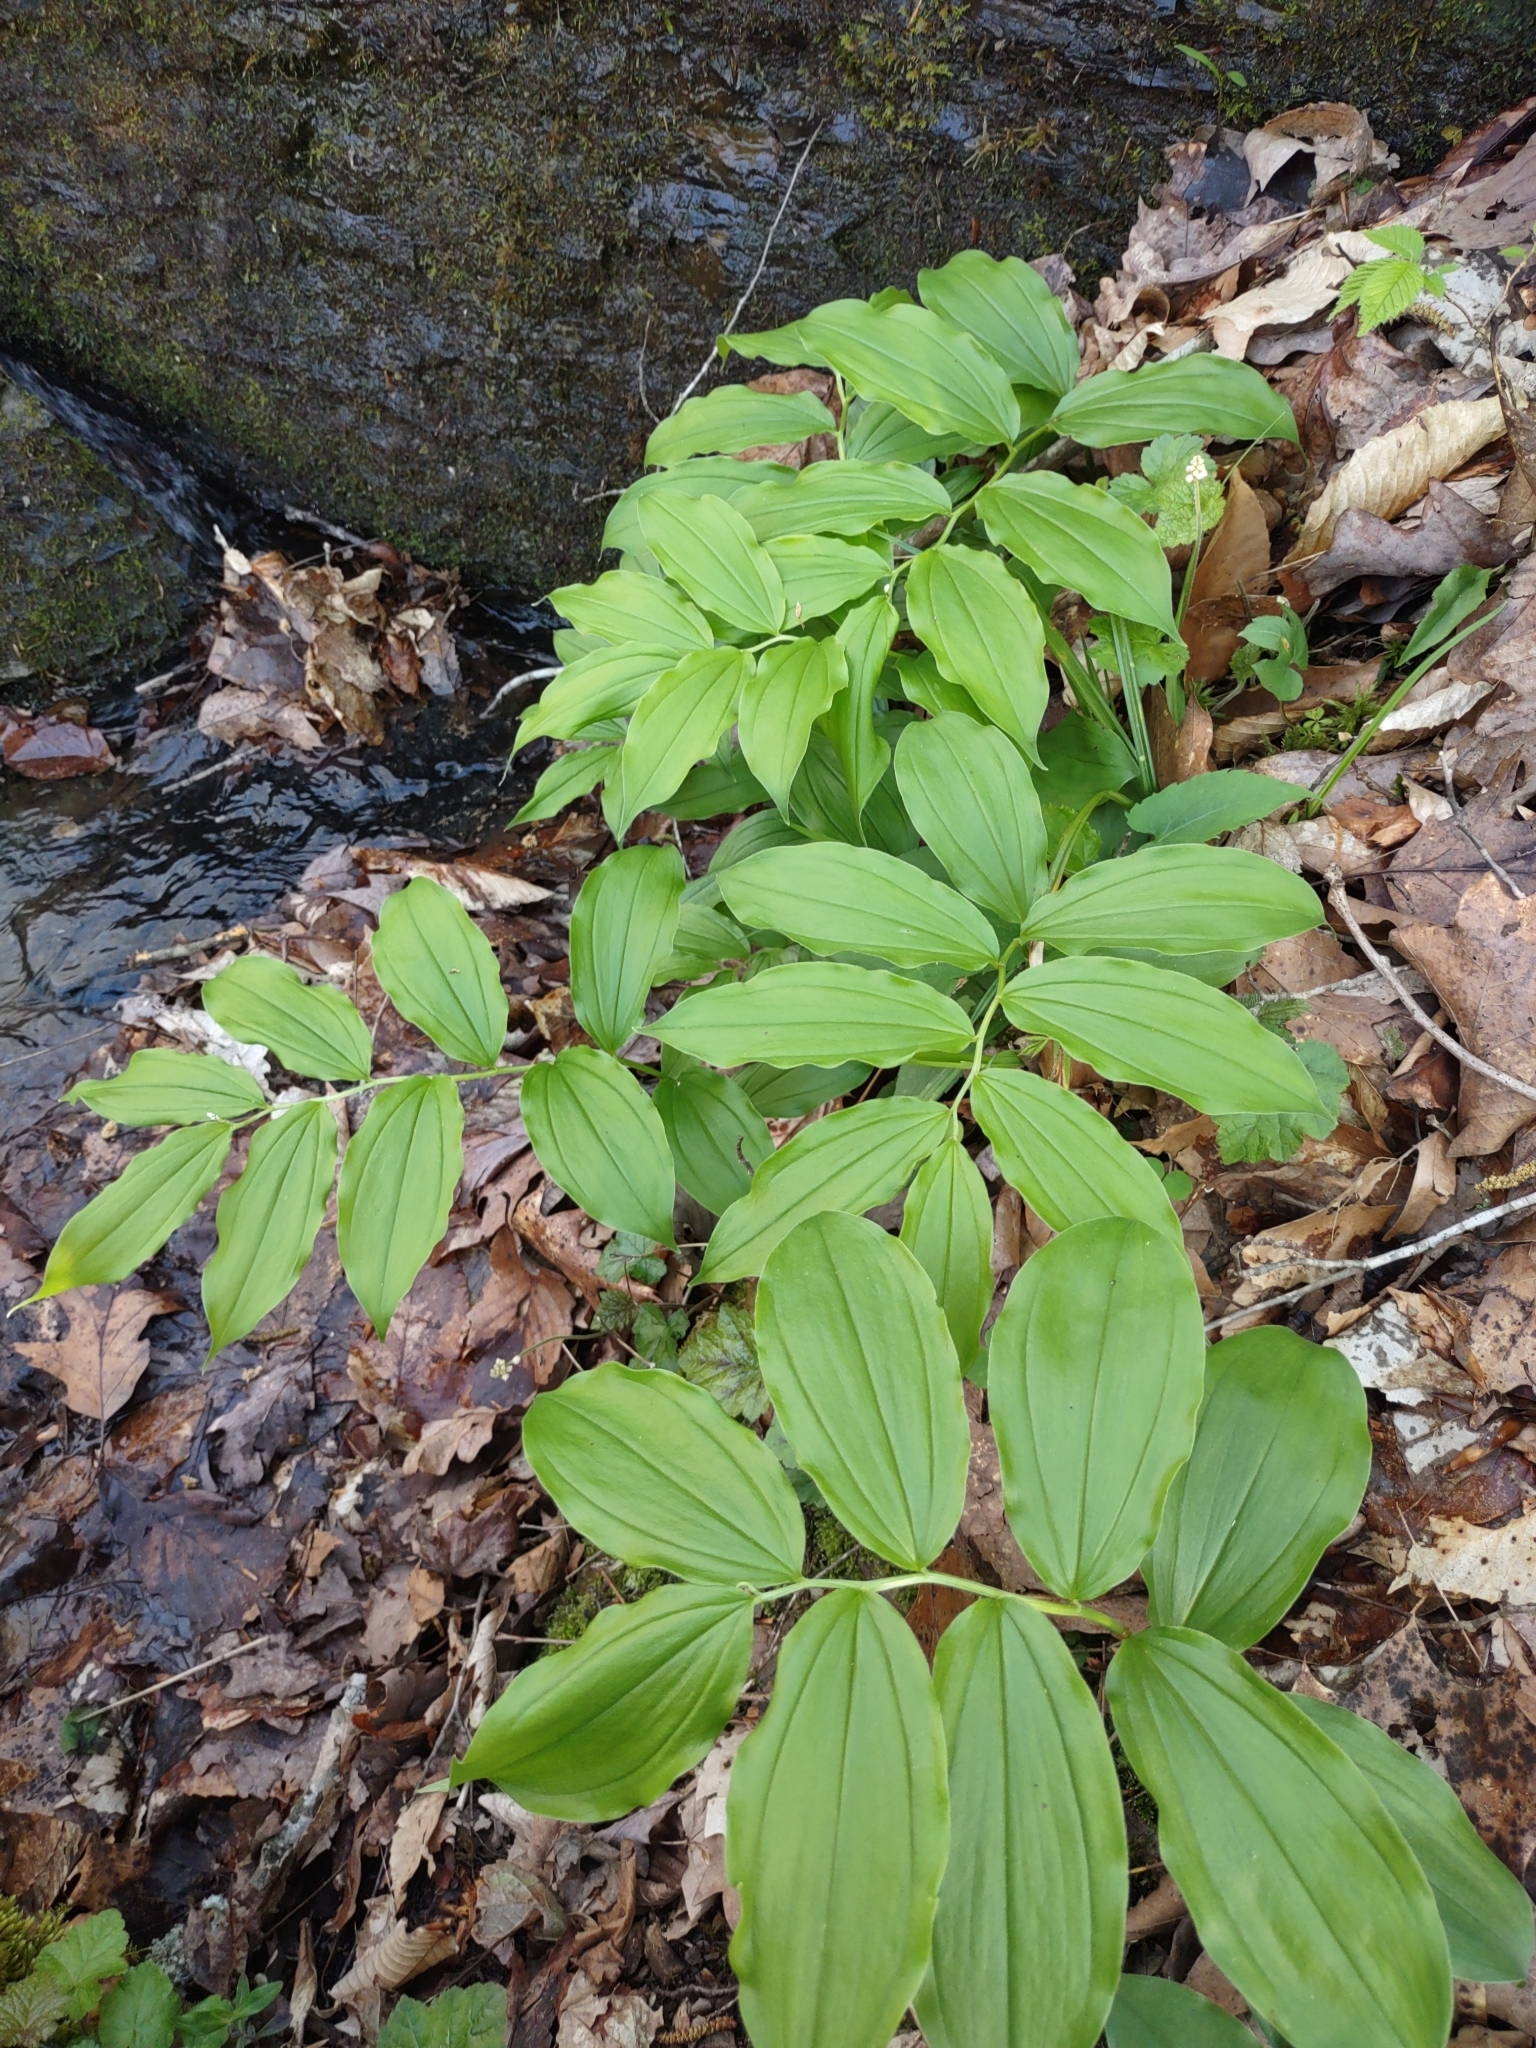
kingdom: Plantae
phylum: Tracheophyta
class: Liliopsida
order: Asparagales
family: Asparagaceae
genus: Maianthemum
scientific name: Maianthemum racemosum
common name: False spikenard
